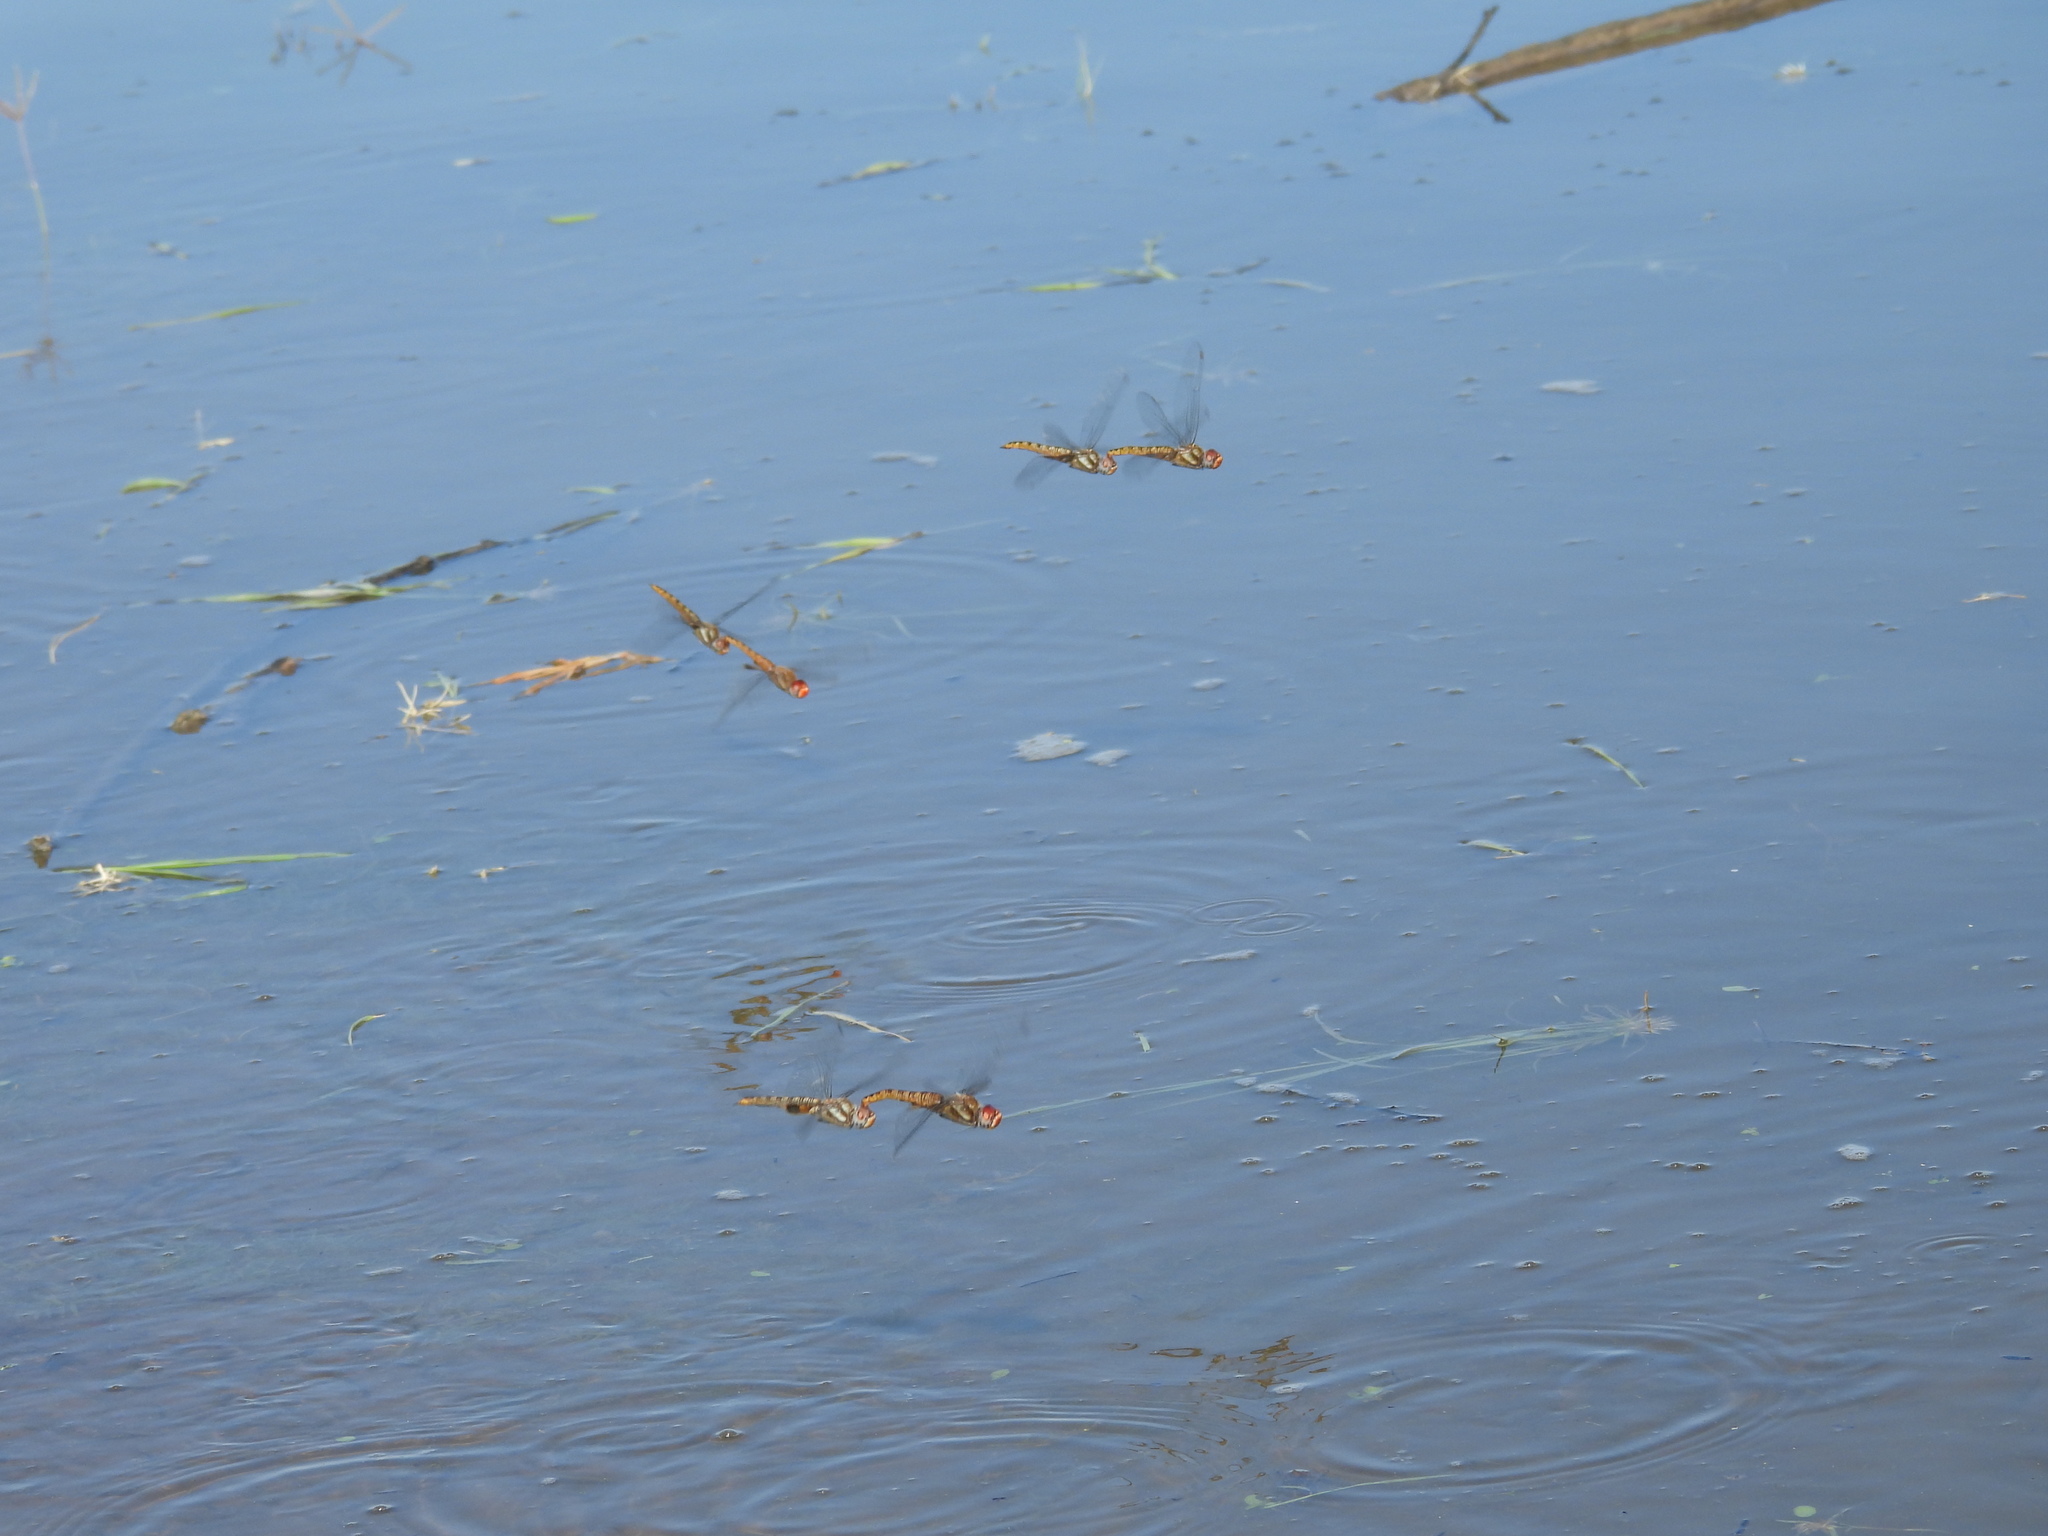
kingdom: Animalia
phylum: Arthropoda
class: Insecta
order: Odonata
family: Libellulidae
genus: Pantala
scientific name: Pantala hymenaea
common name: Spot-winged glider
